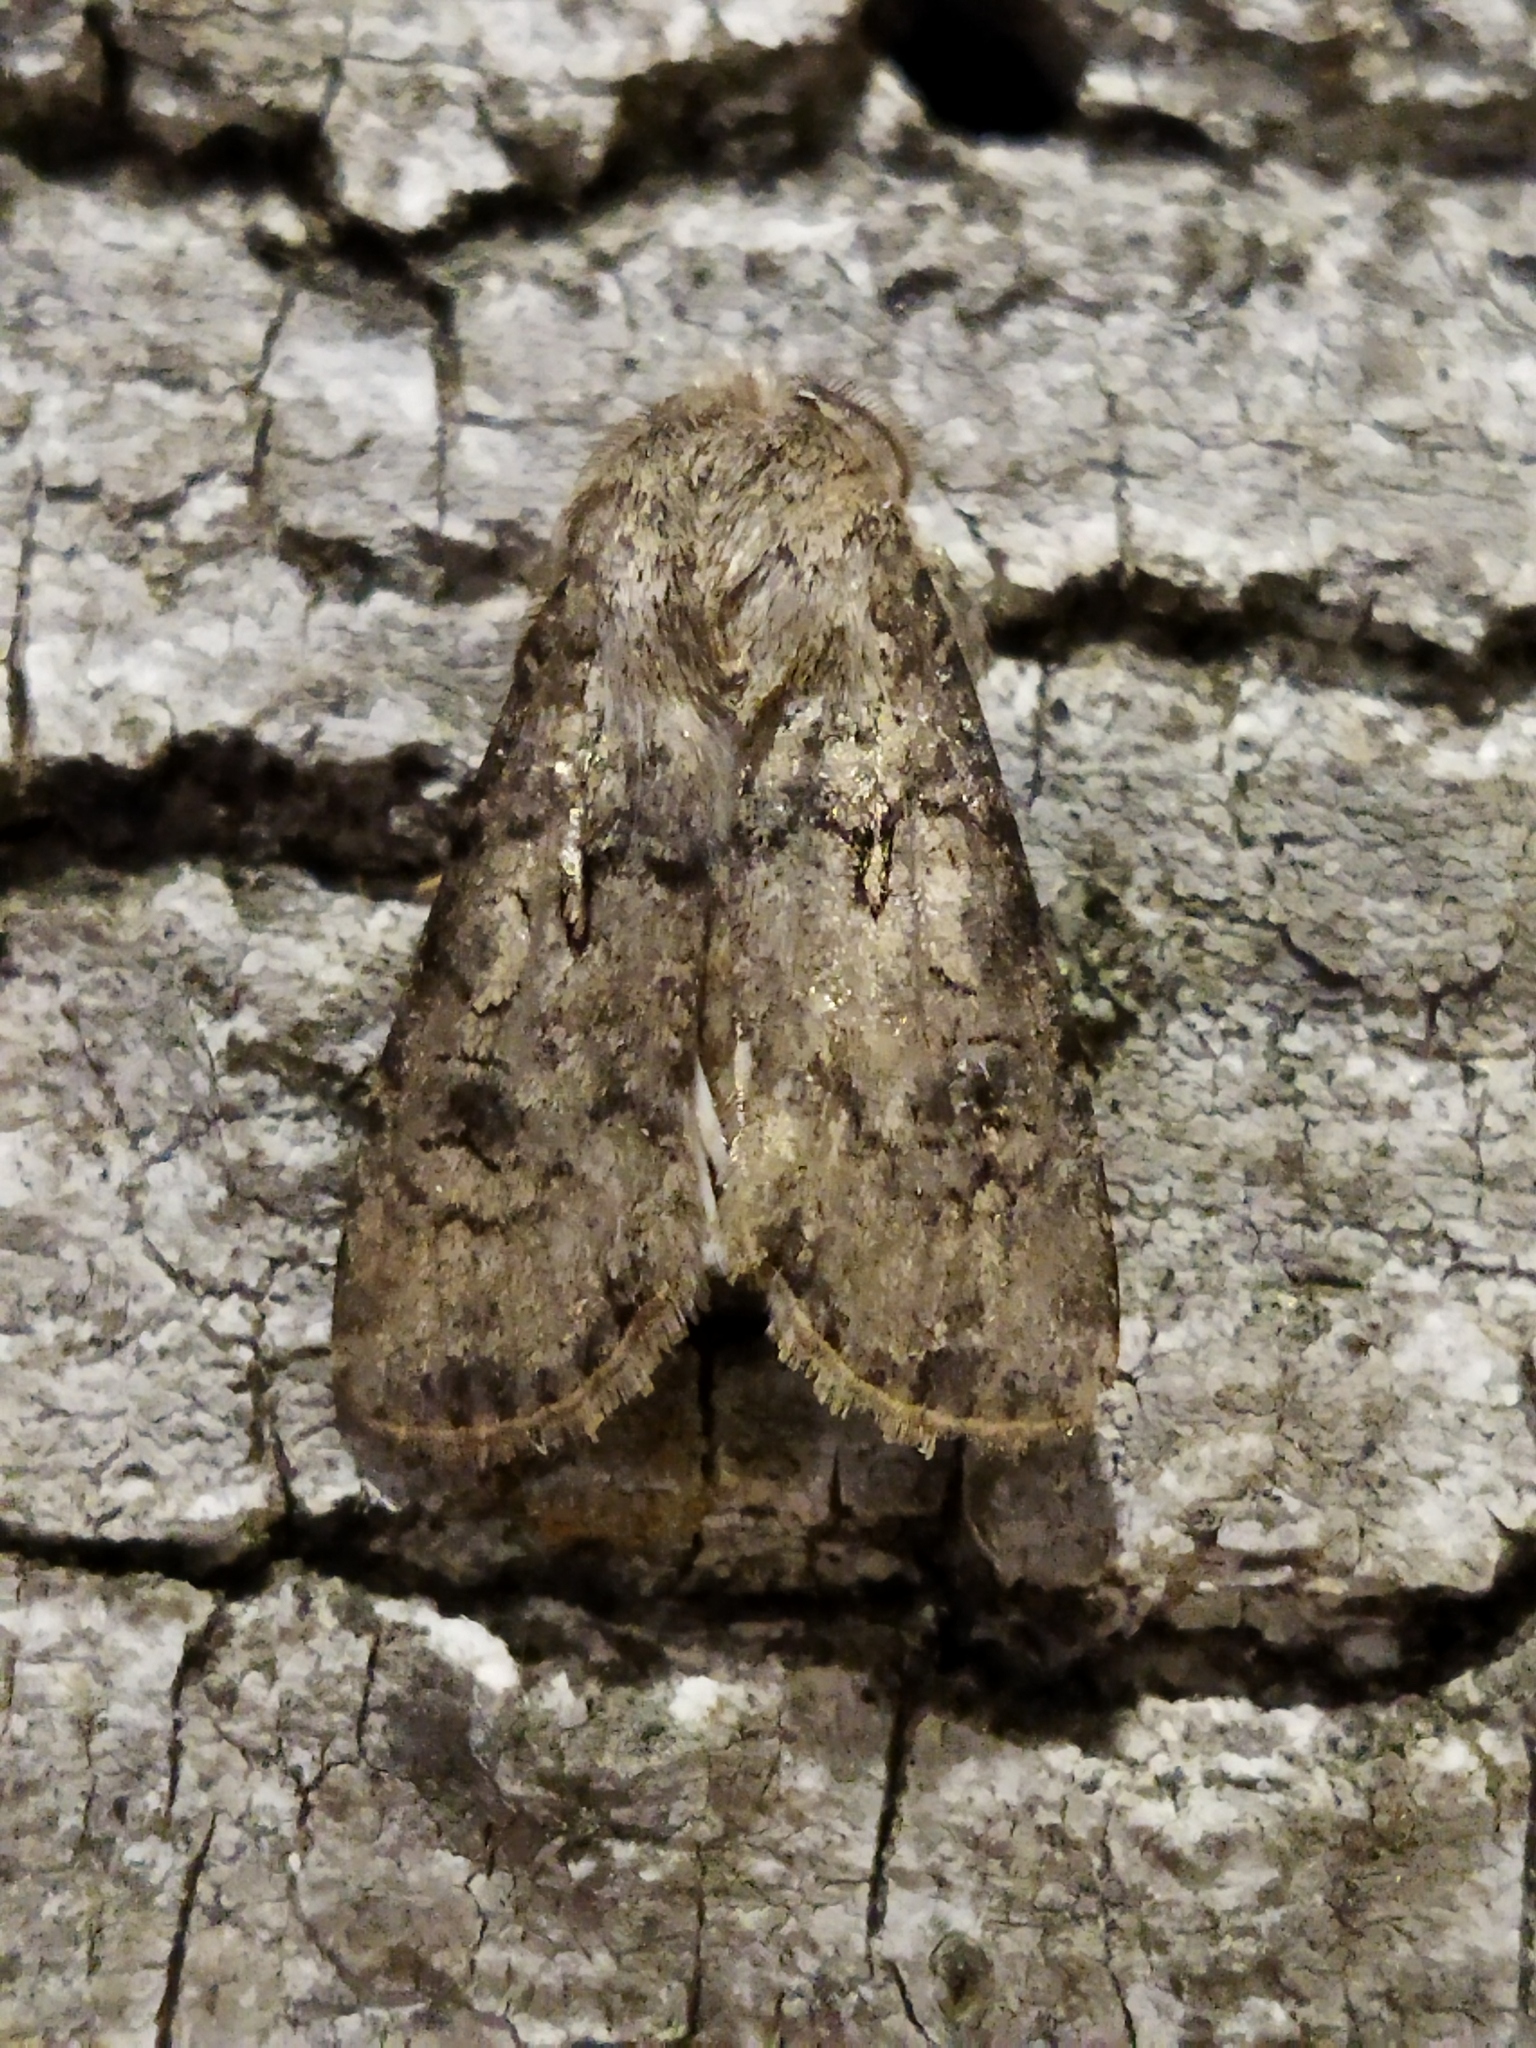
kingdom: Animalia
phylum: Arthropoda
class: Insecta
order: Lepidoptera
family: Noctuidae
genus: Agrotis
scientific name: Agrotis segetum
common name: Turnip moth
